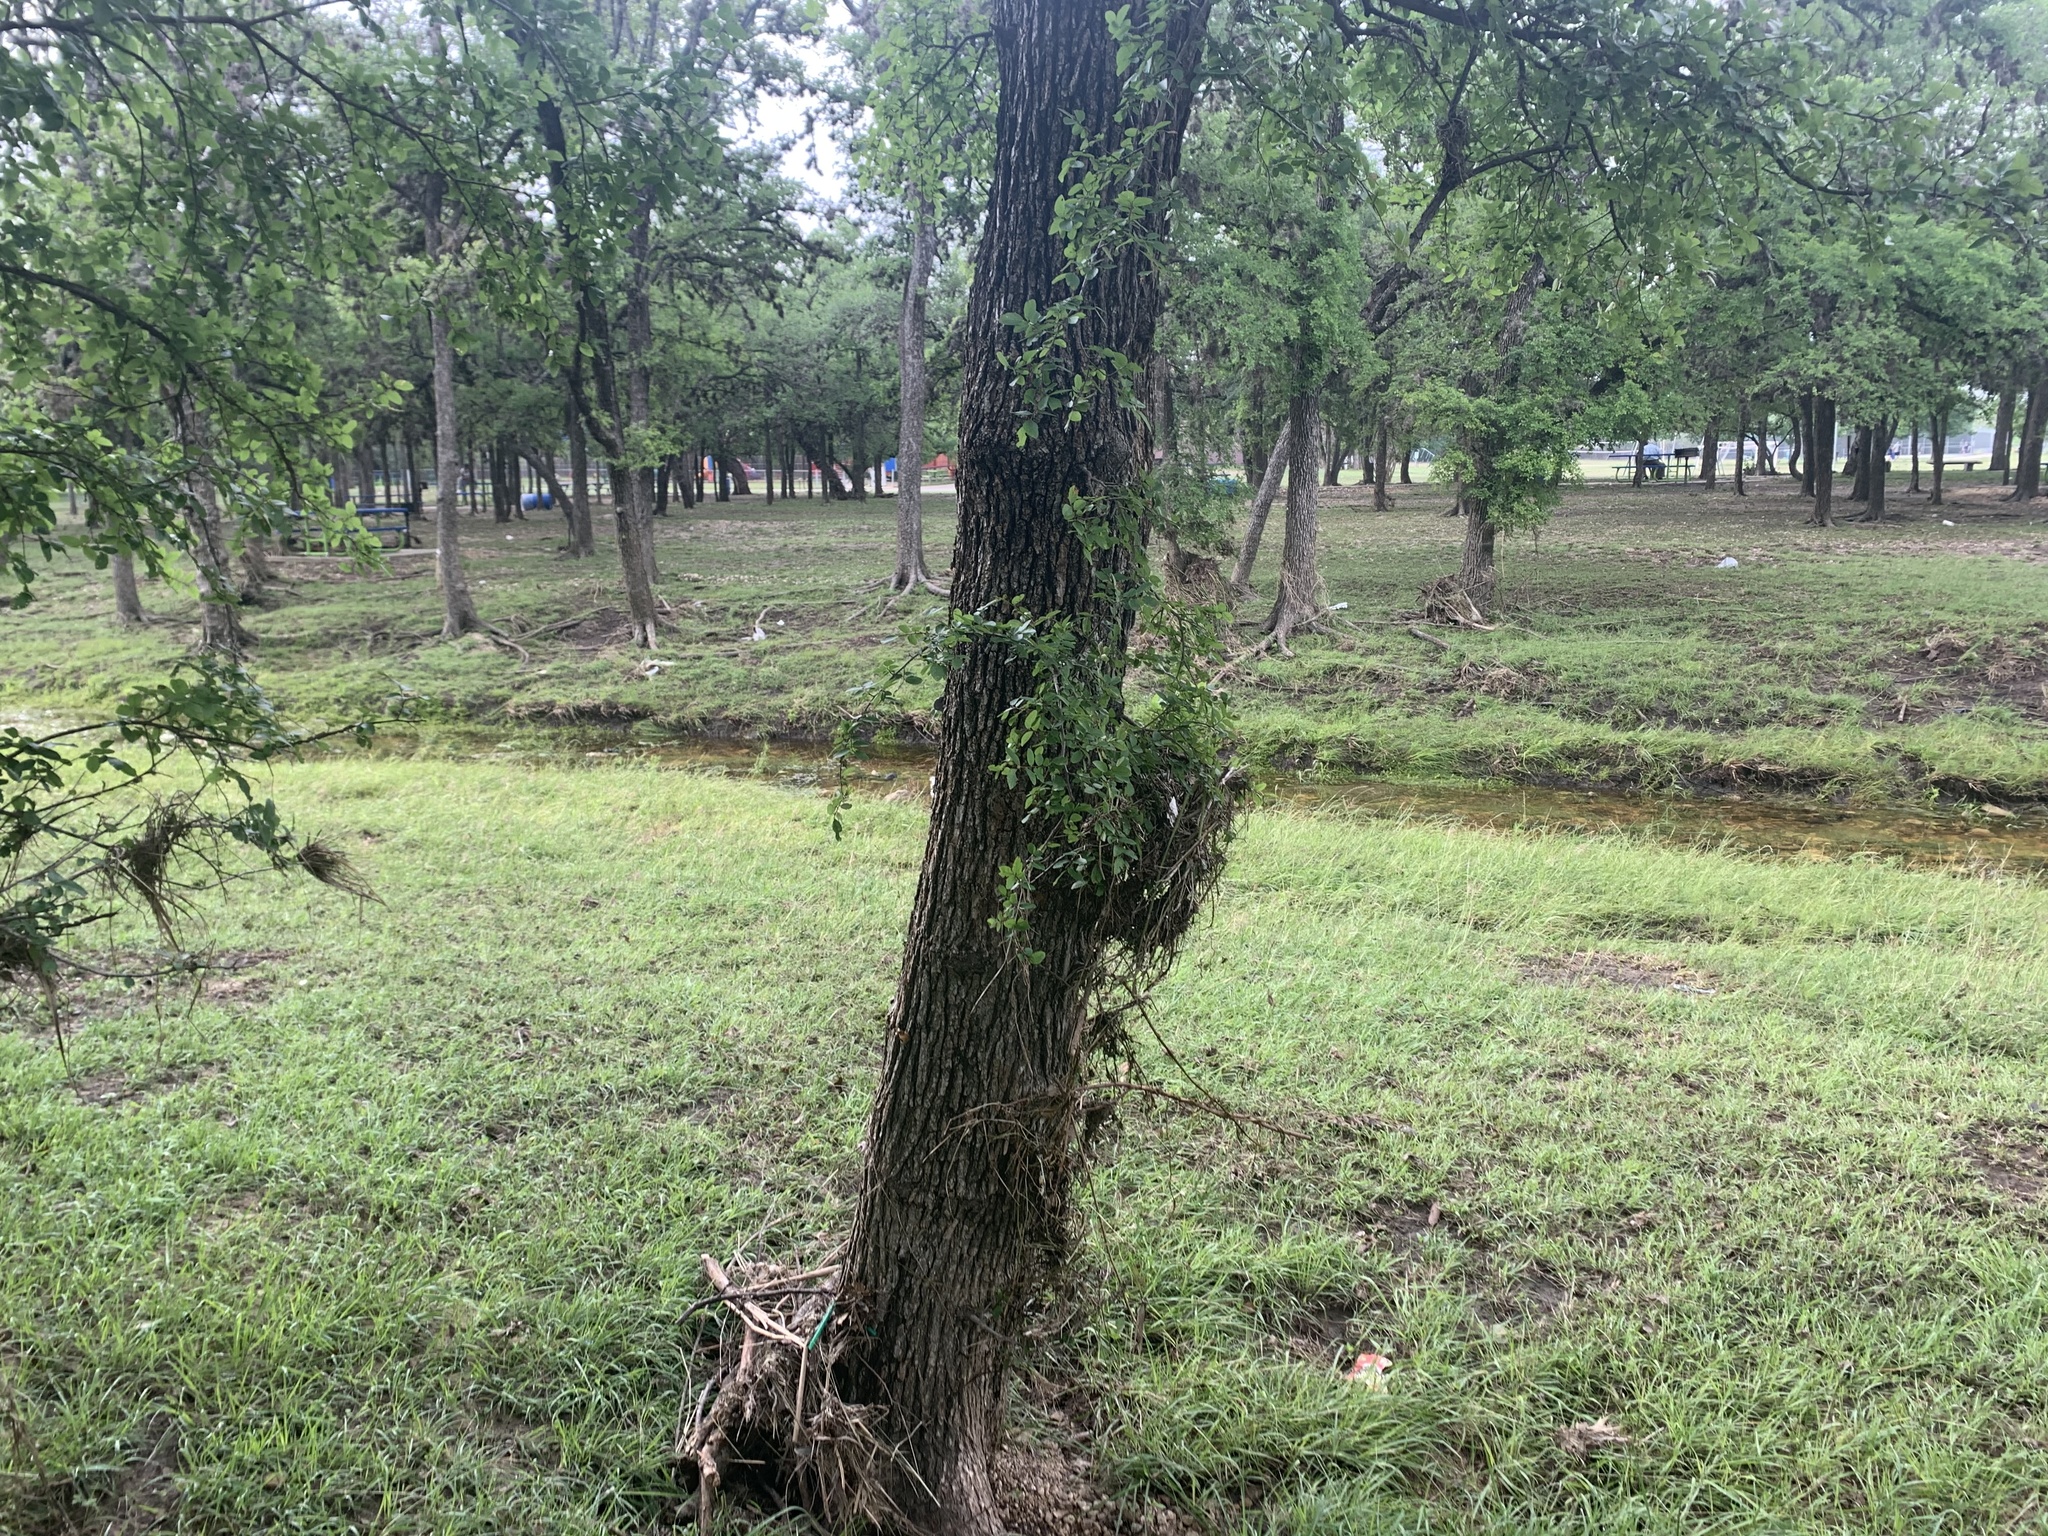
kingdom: Plantae
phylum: Tracheophyta
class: Magnoliopsida
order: Rosales
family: Ulmaceae
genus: Ulmus
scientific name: Ulmus crassifolia
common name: Basket elm
